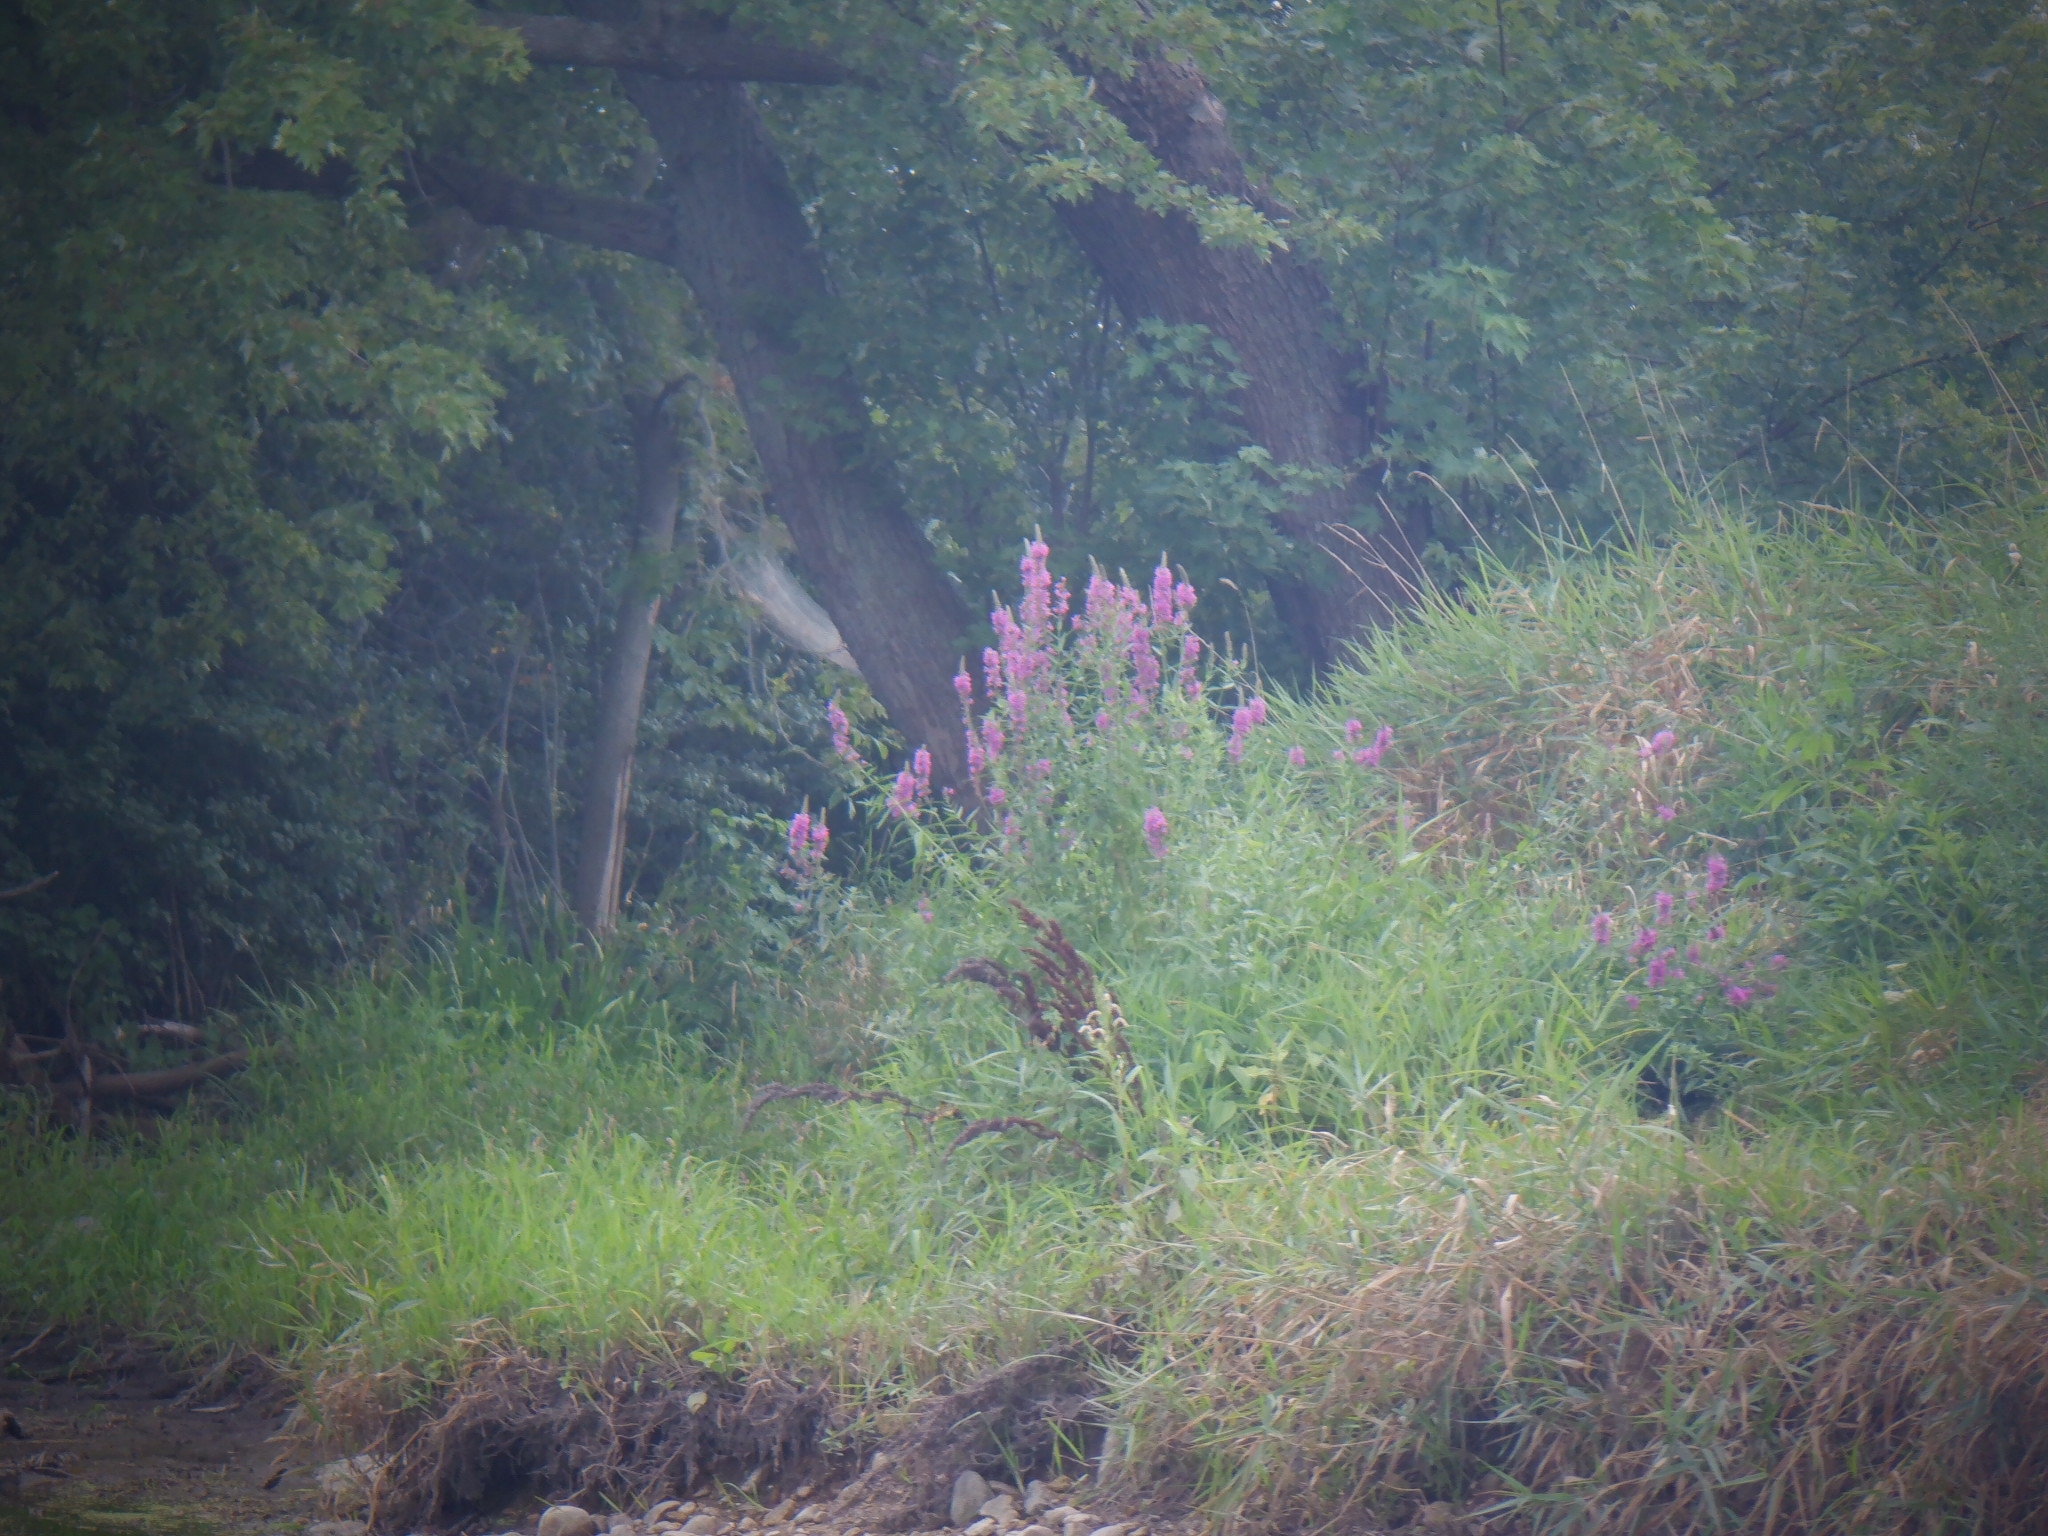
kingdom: Plantae
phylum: Tracheophyta
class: Magnoliopsida
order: Myrtales
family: Lythraceae
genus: Lythrum
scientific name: Lythrum salicaria
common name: Purple loosestrife
